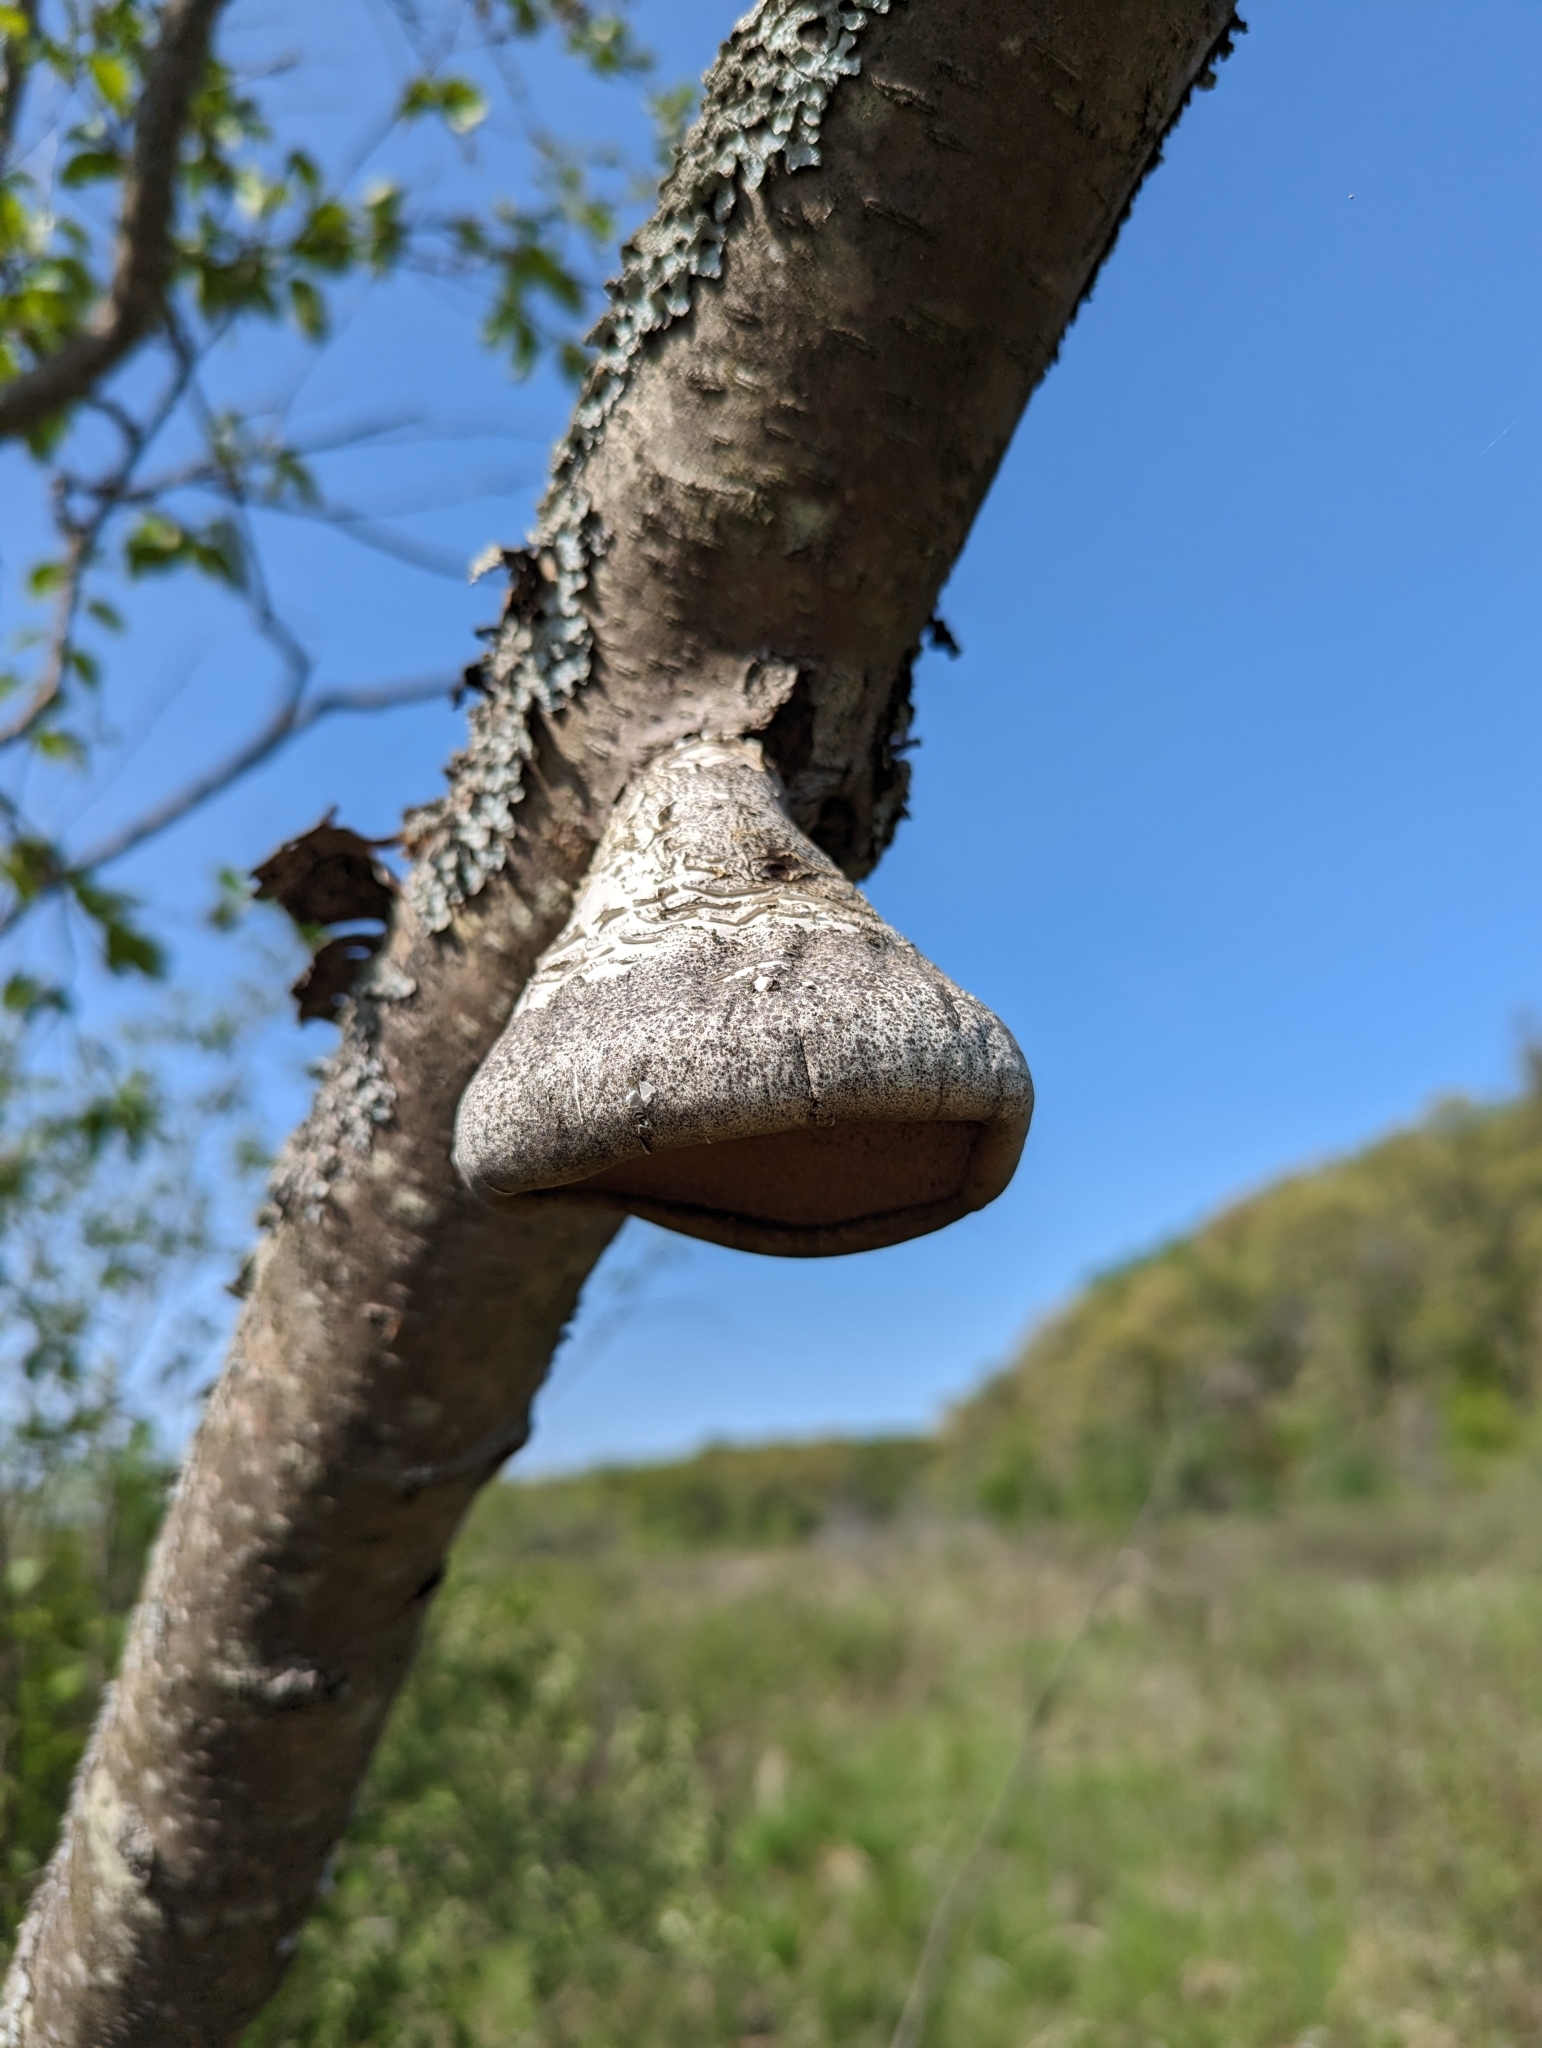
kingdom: Fungi
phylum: Basidiomycota
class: Agaricomycetes
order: Polyporales
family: Fomitopsidaceae
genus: Fomitopsis
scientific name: Fomitopsis betulina
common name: Birch polypore
